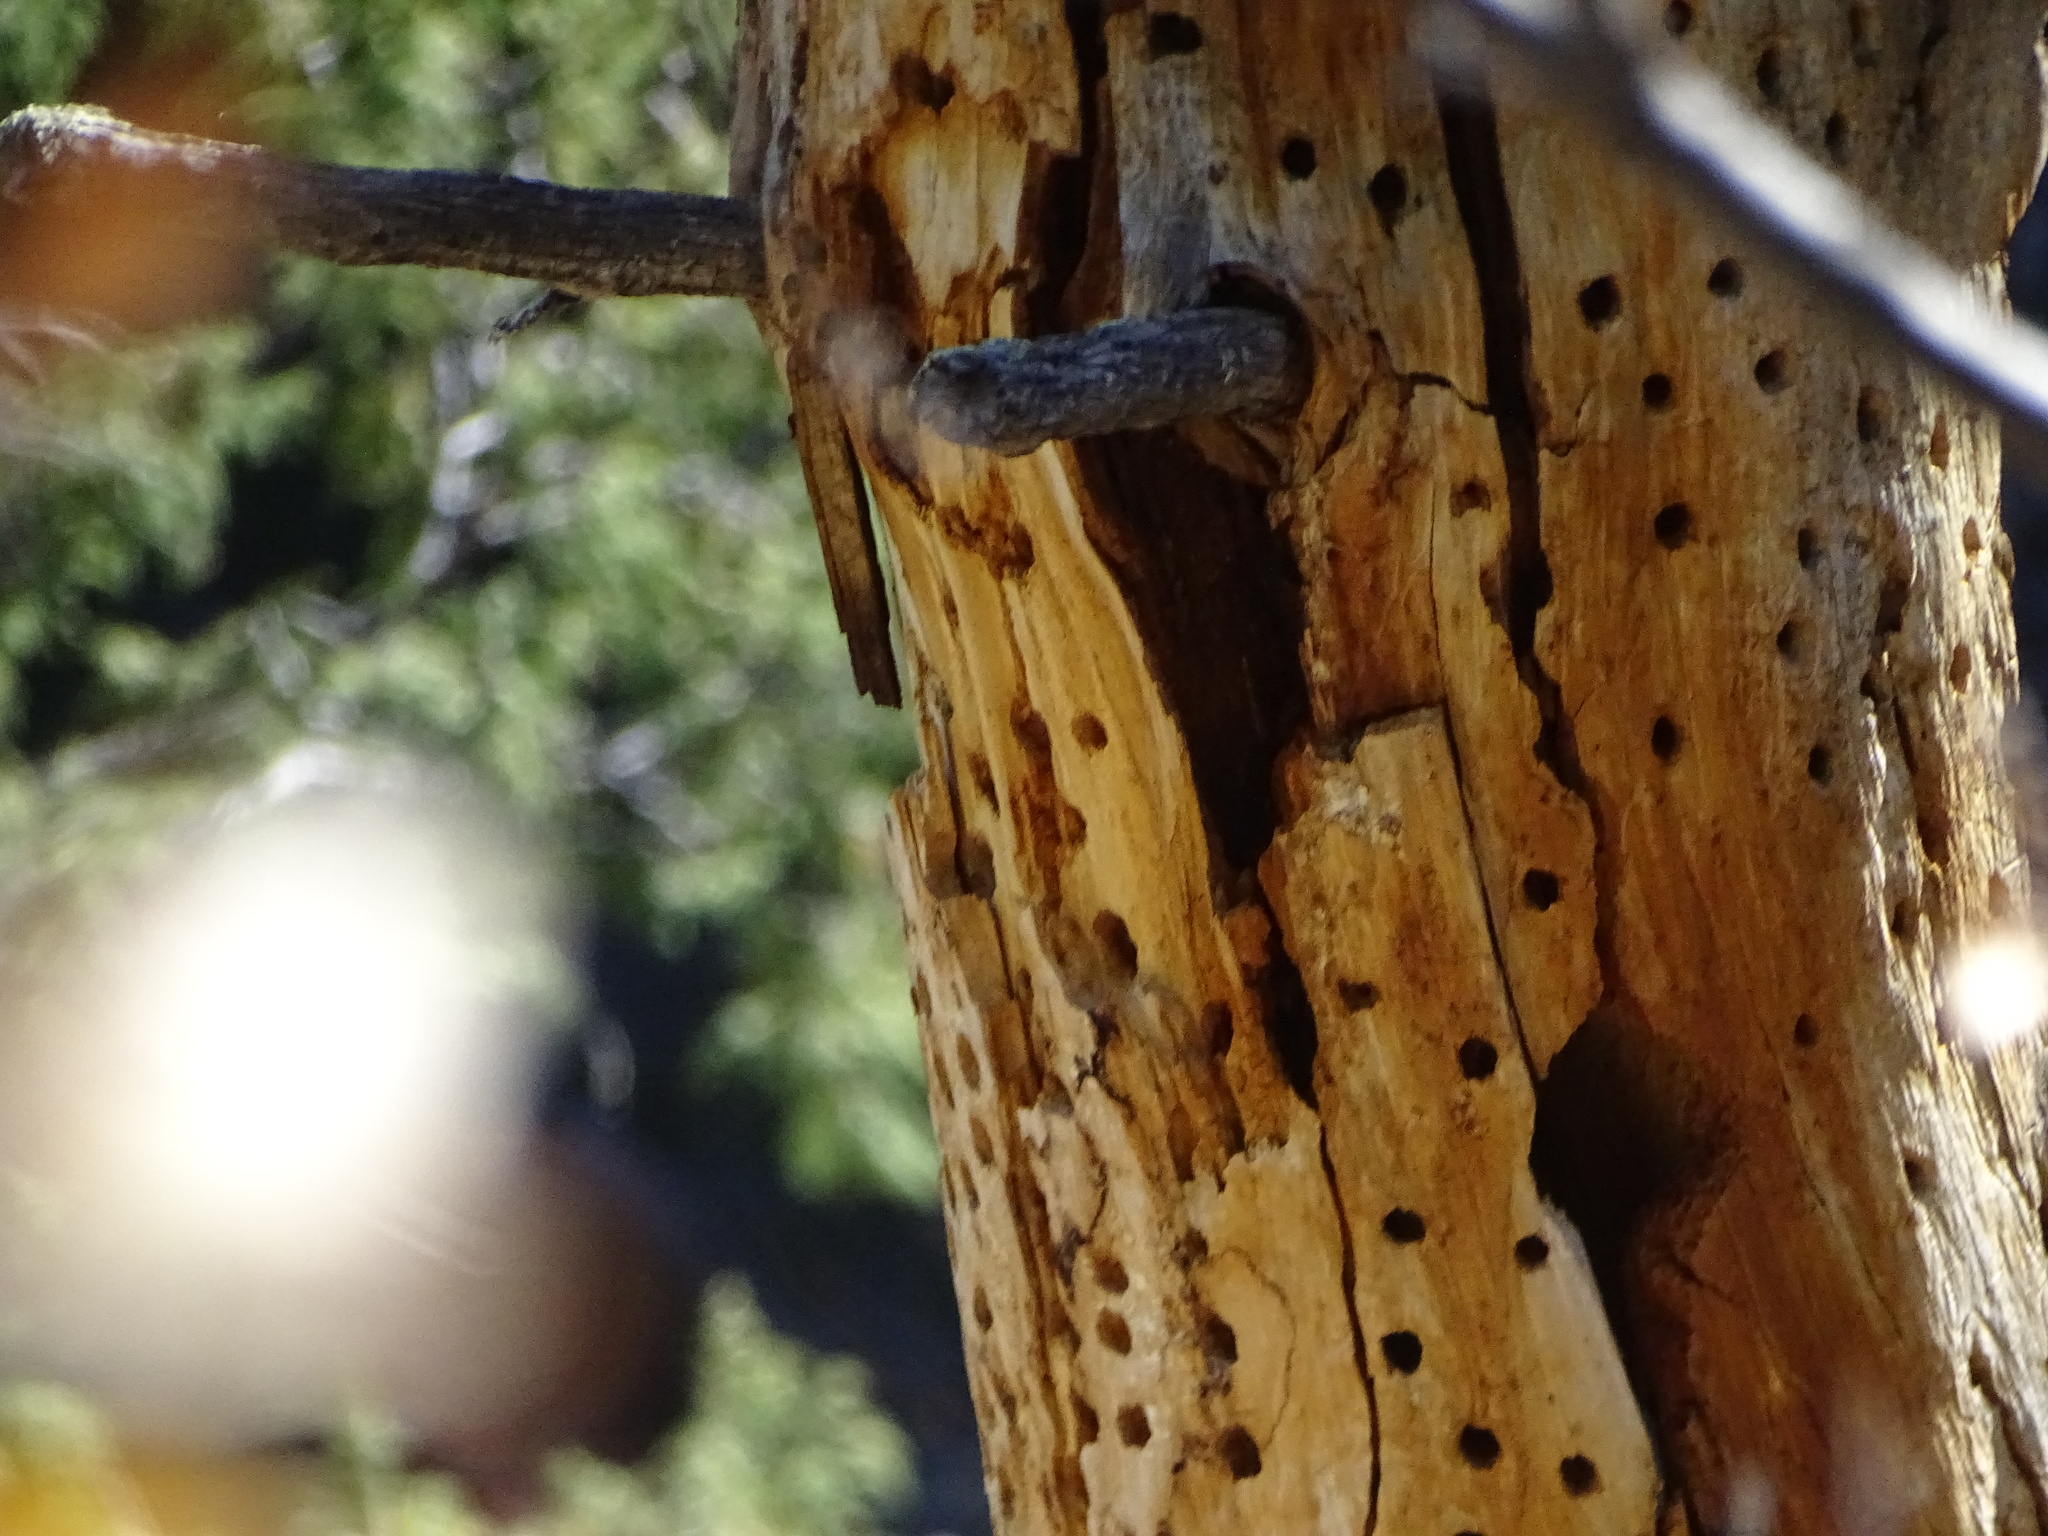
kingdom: Animalia
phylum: Chordata
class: Aves
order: Piciformes
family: Picidae
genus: Melanerpes
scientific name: Melanerpes formicivorus
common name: Acorn woodpecker
